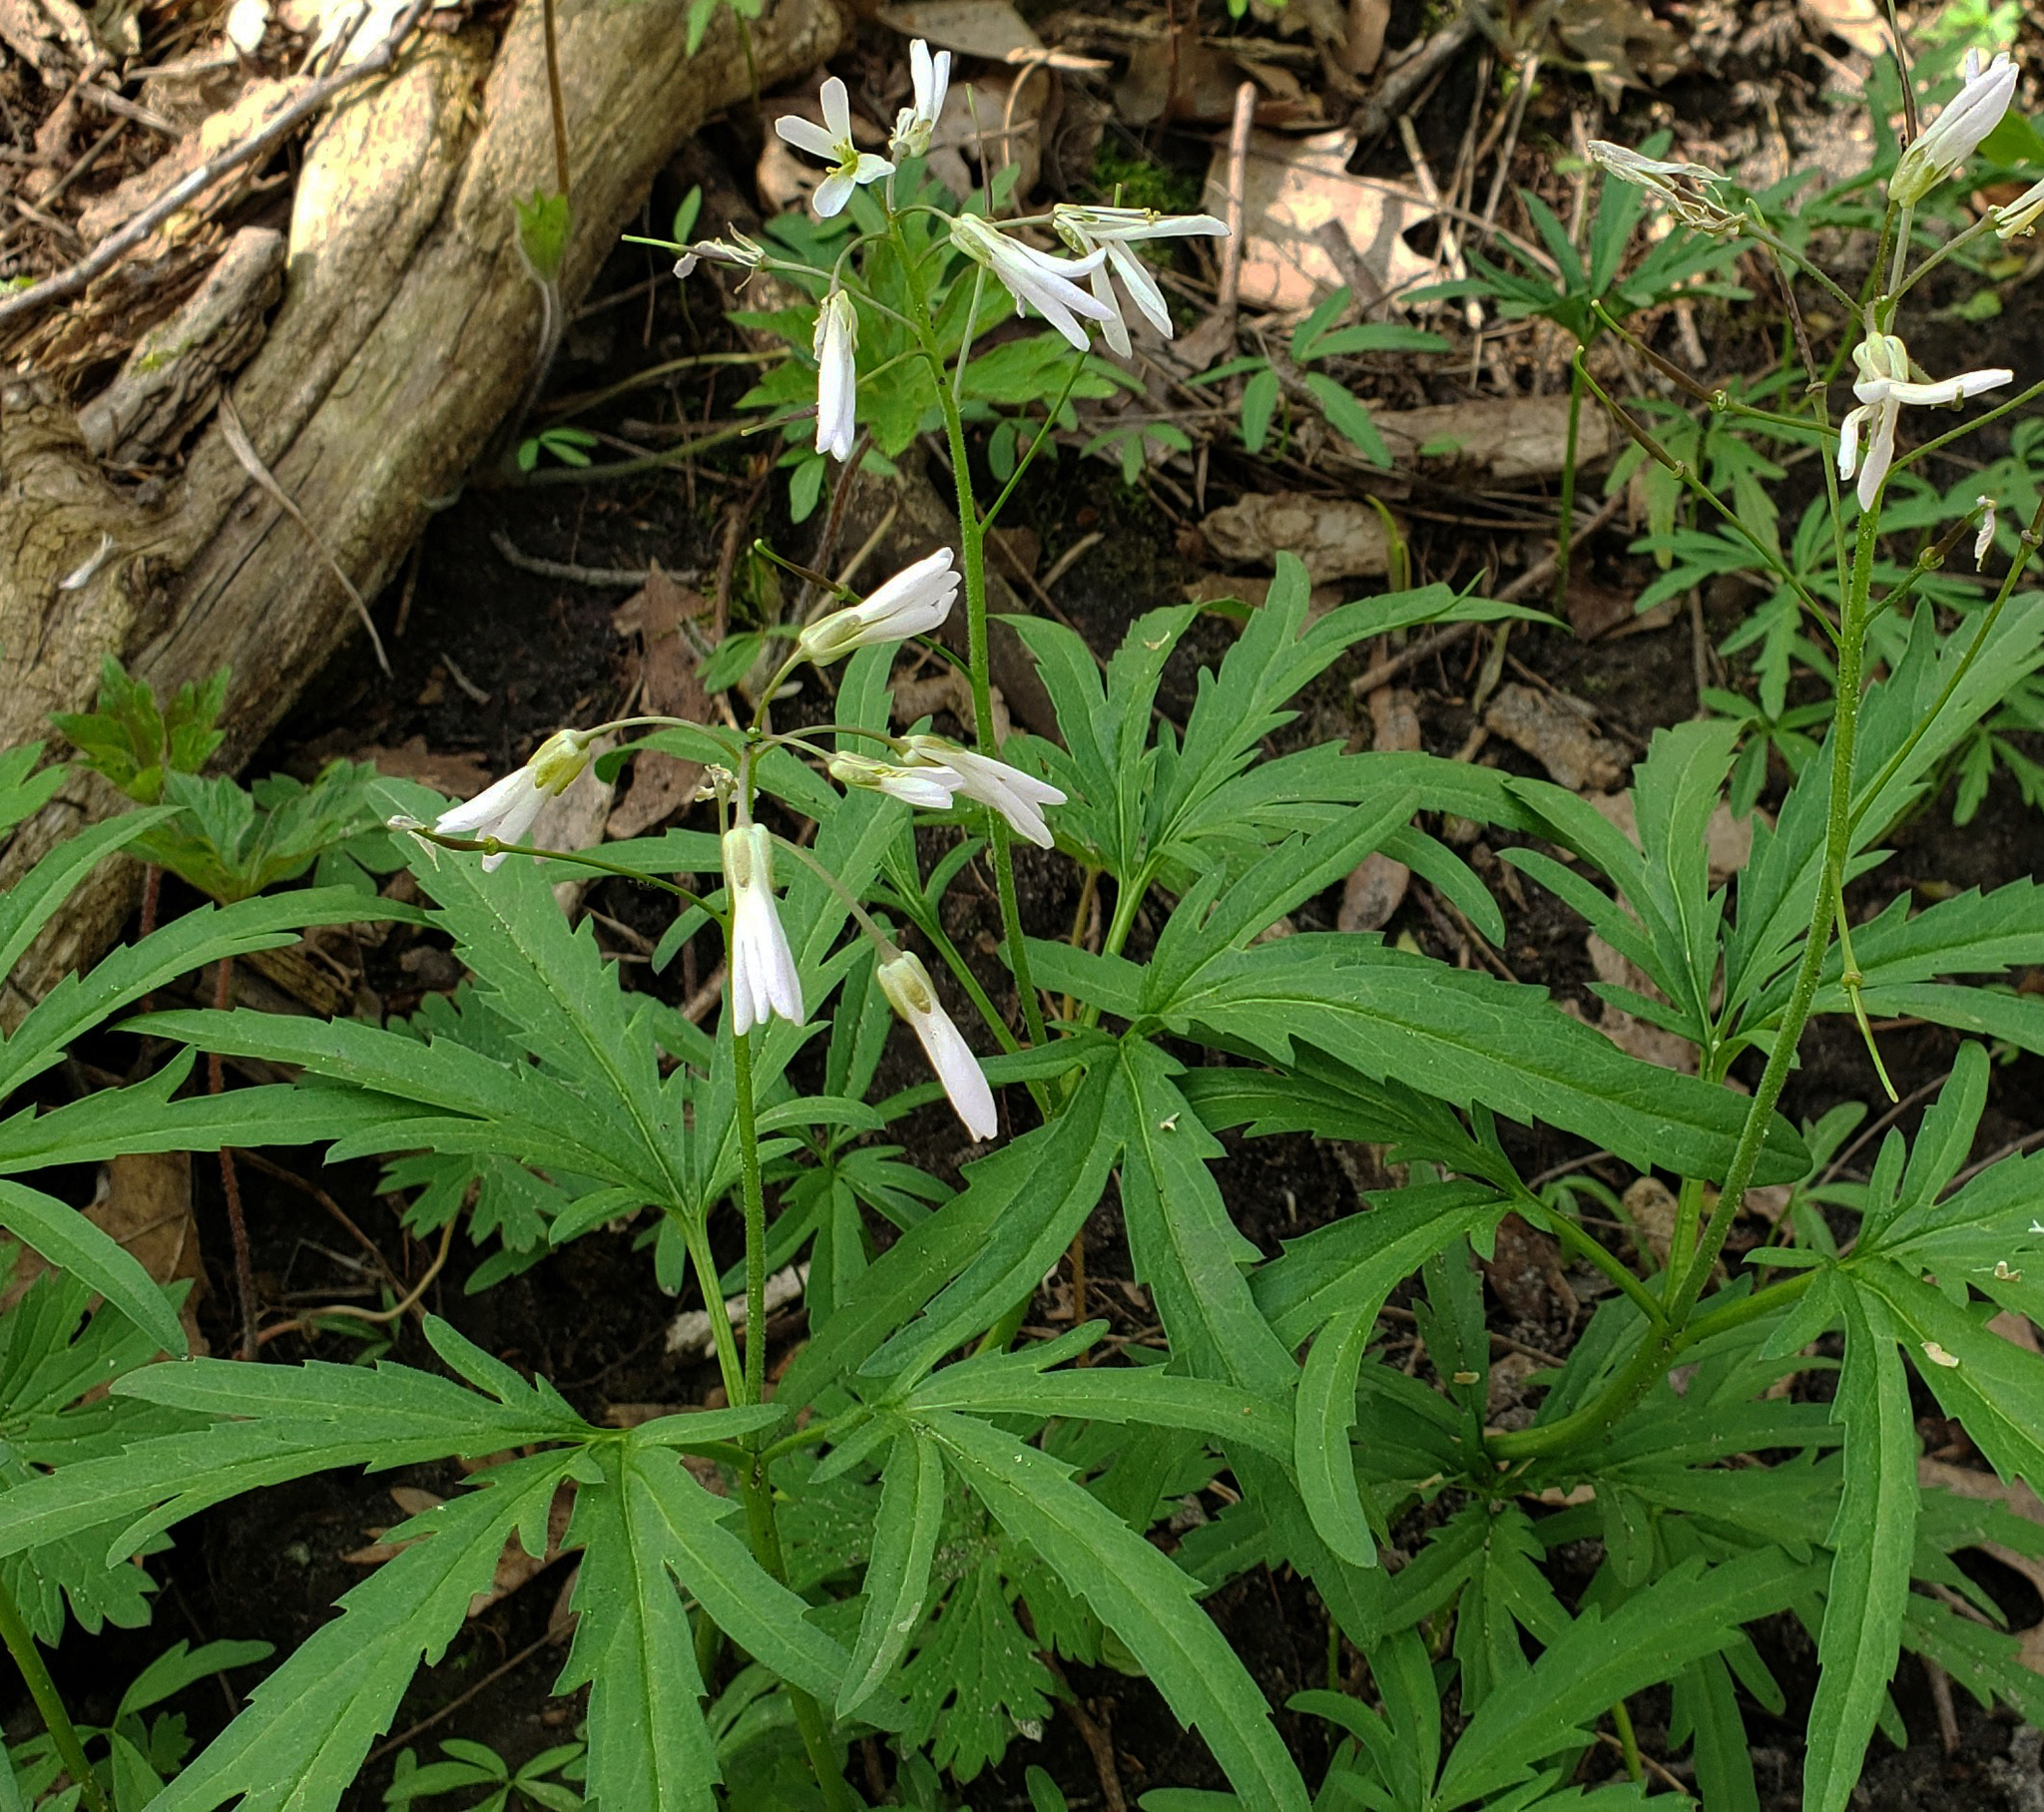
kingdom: Plantae
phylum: Tracheophyta
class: Magnoliopsida
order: Brassicales
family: Brassicaceae
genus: Cardamine
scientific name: Cardamine concatenata
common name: Cut-leaf toothcup
